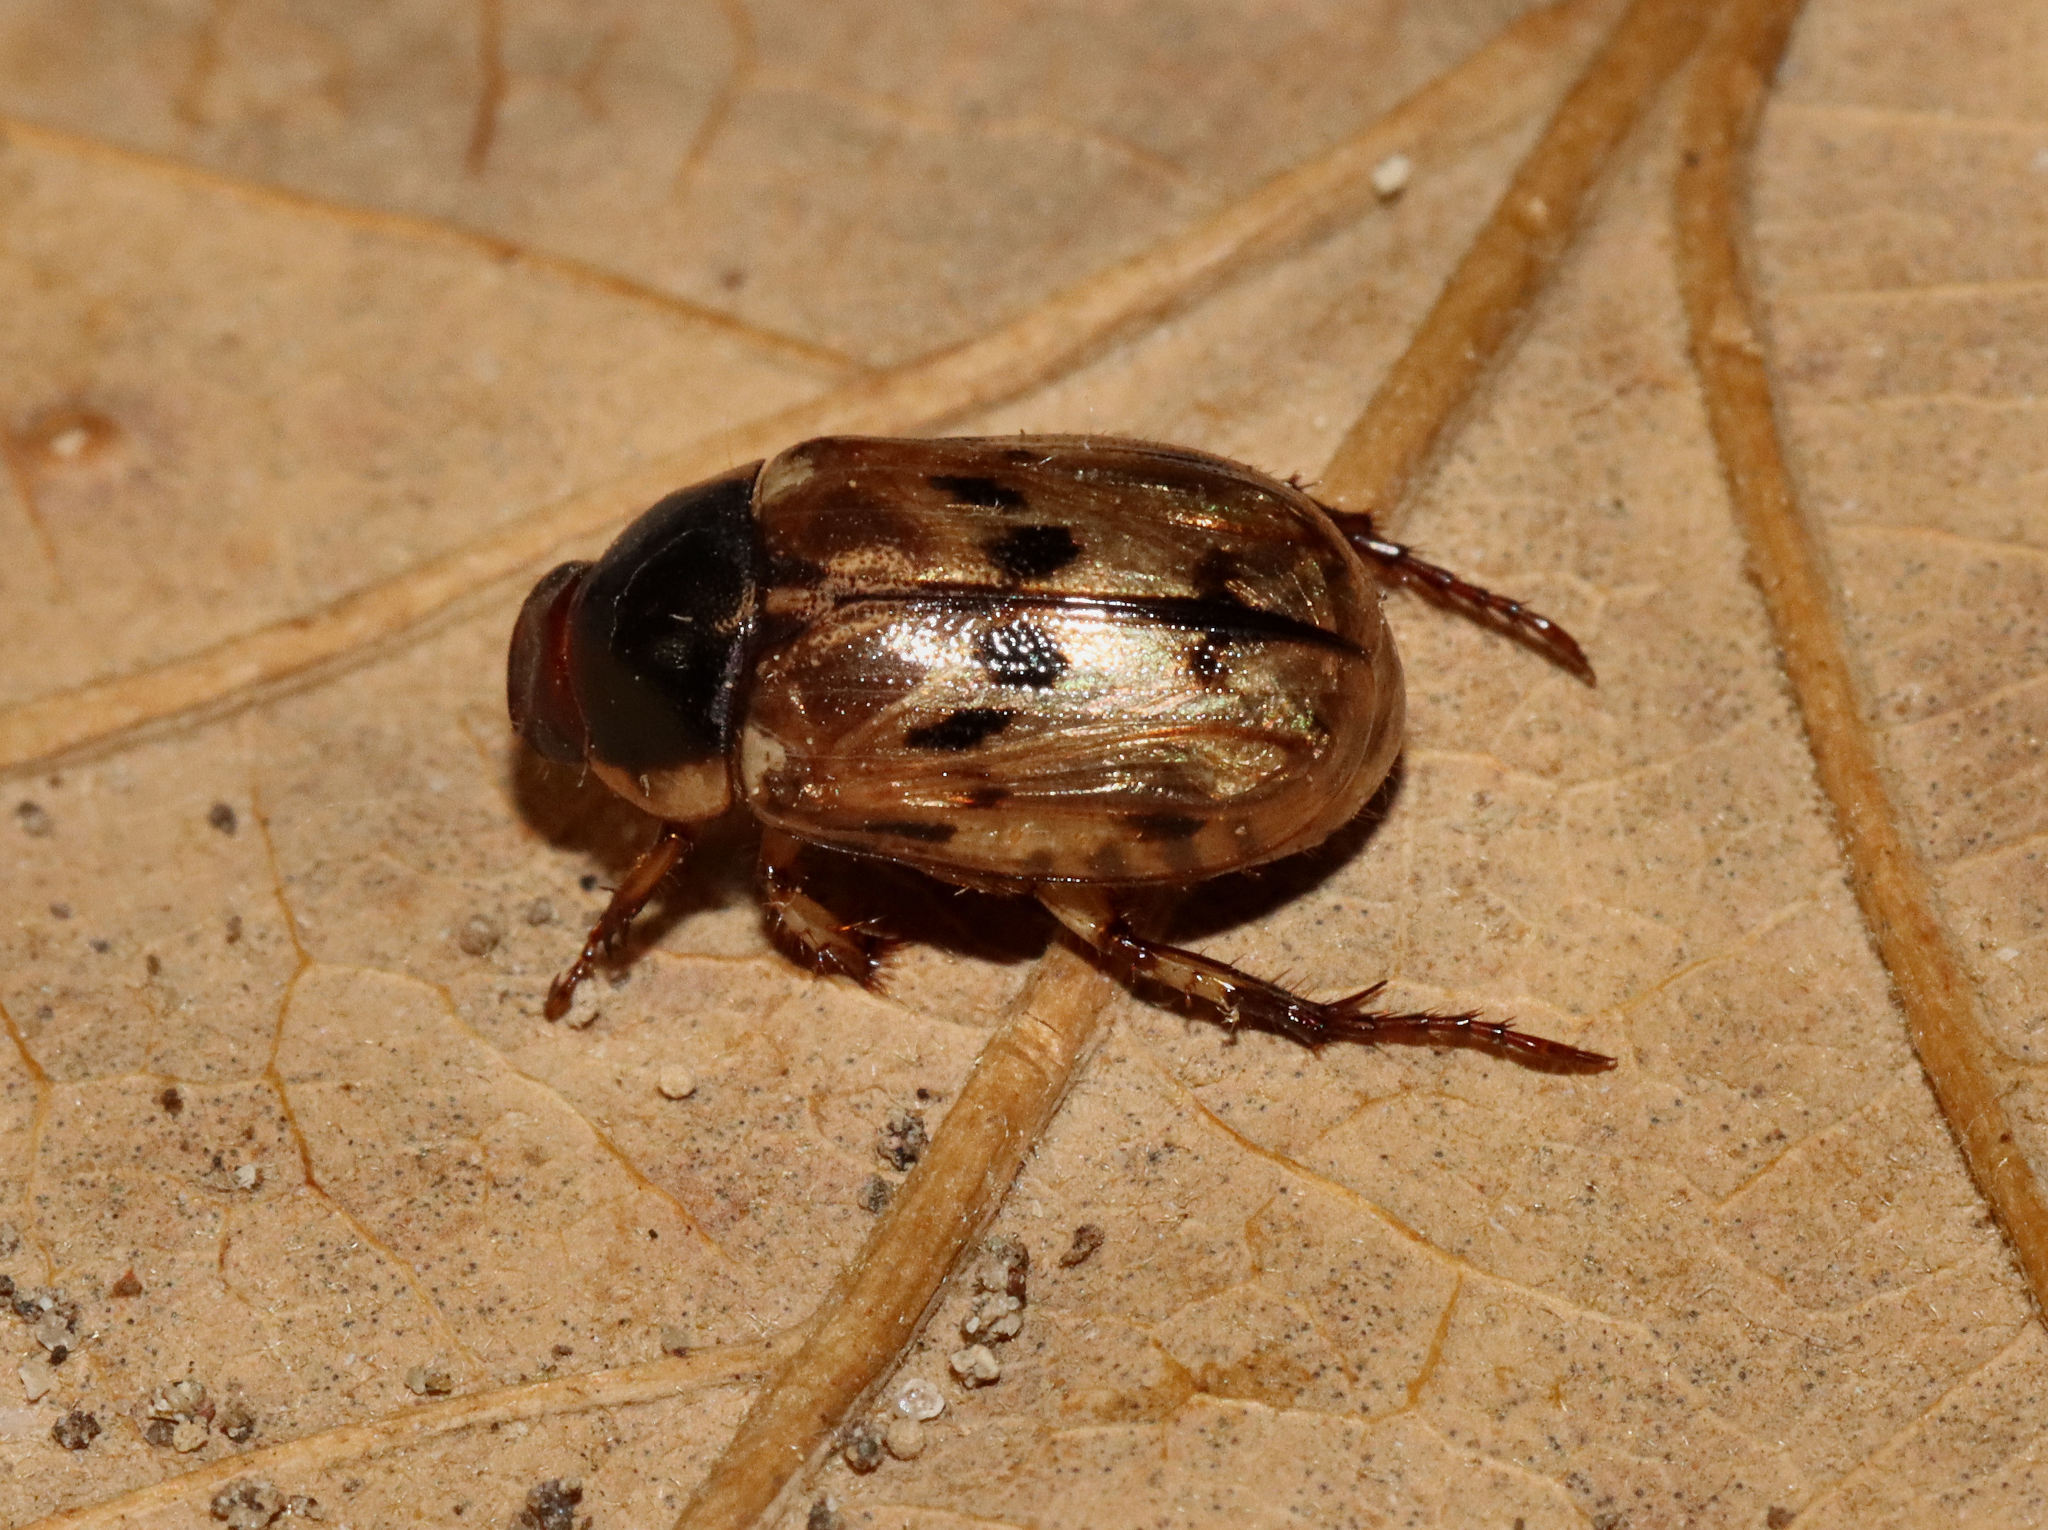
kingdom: Animalia
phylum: Arthropoda
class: Insecta
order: Coleoptera
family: Scarabaeidae
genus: Paranomala
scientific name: Paranomala undulata
